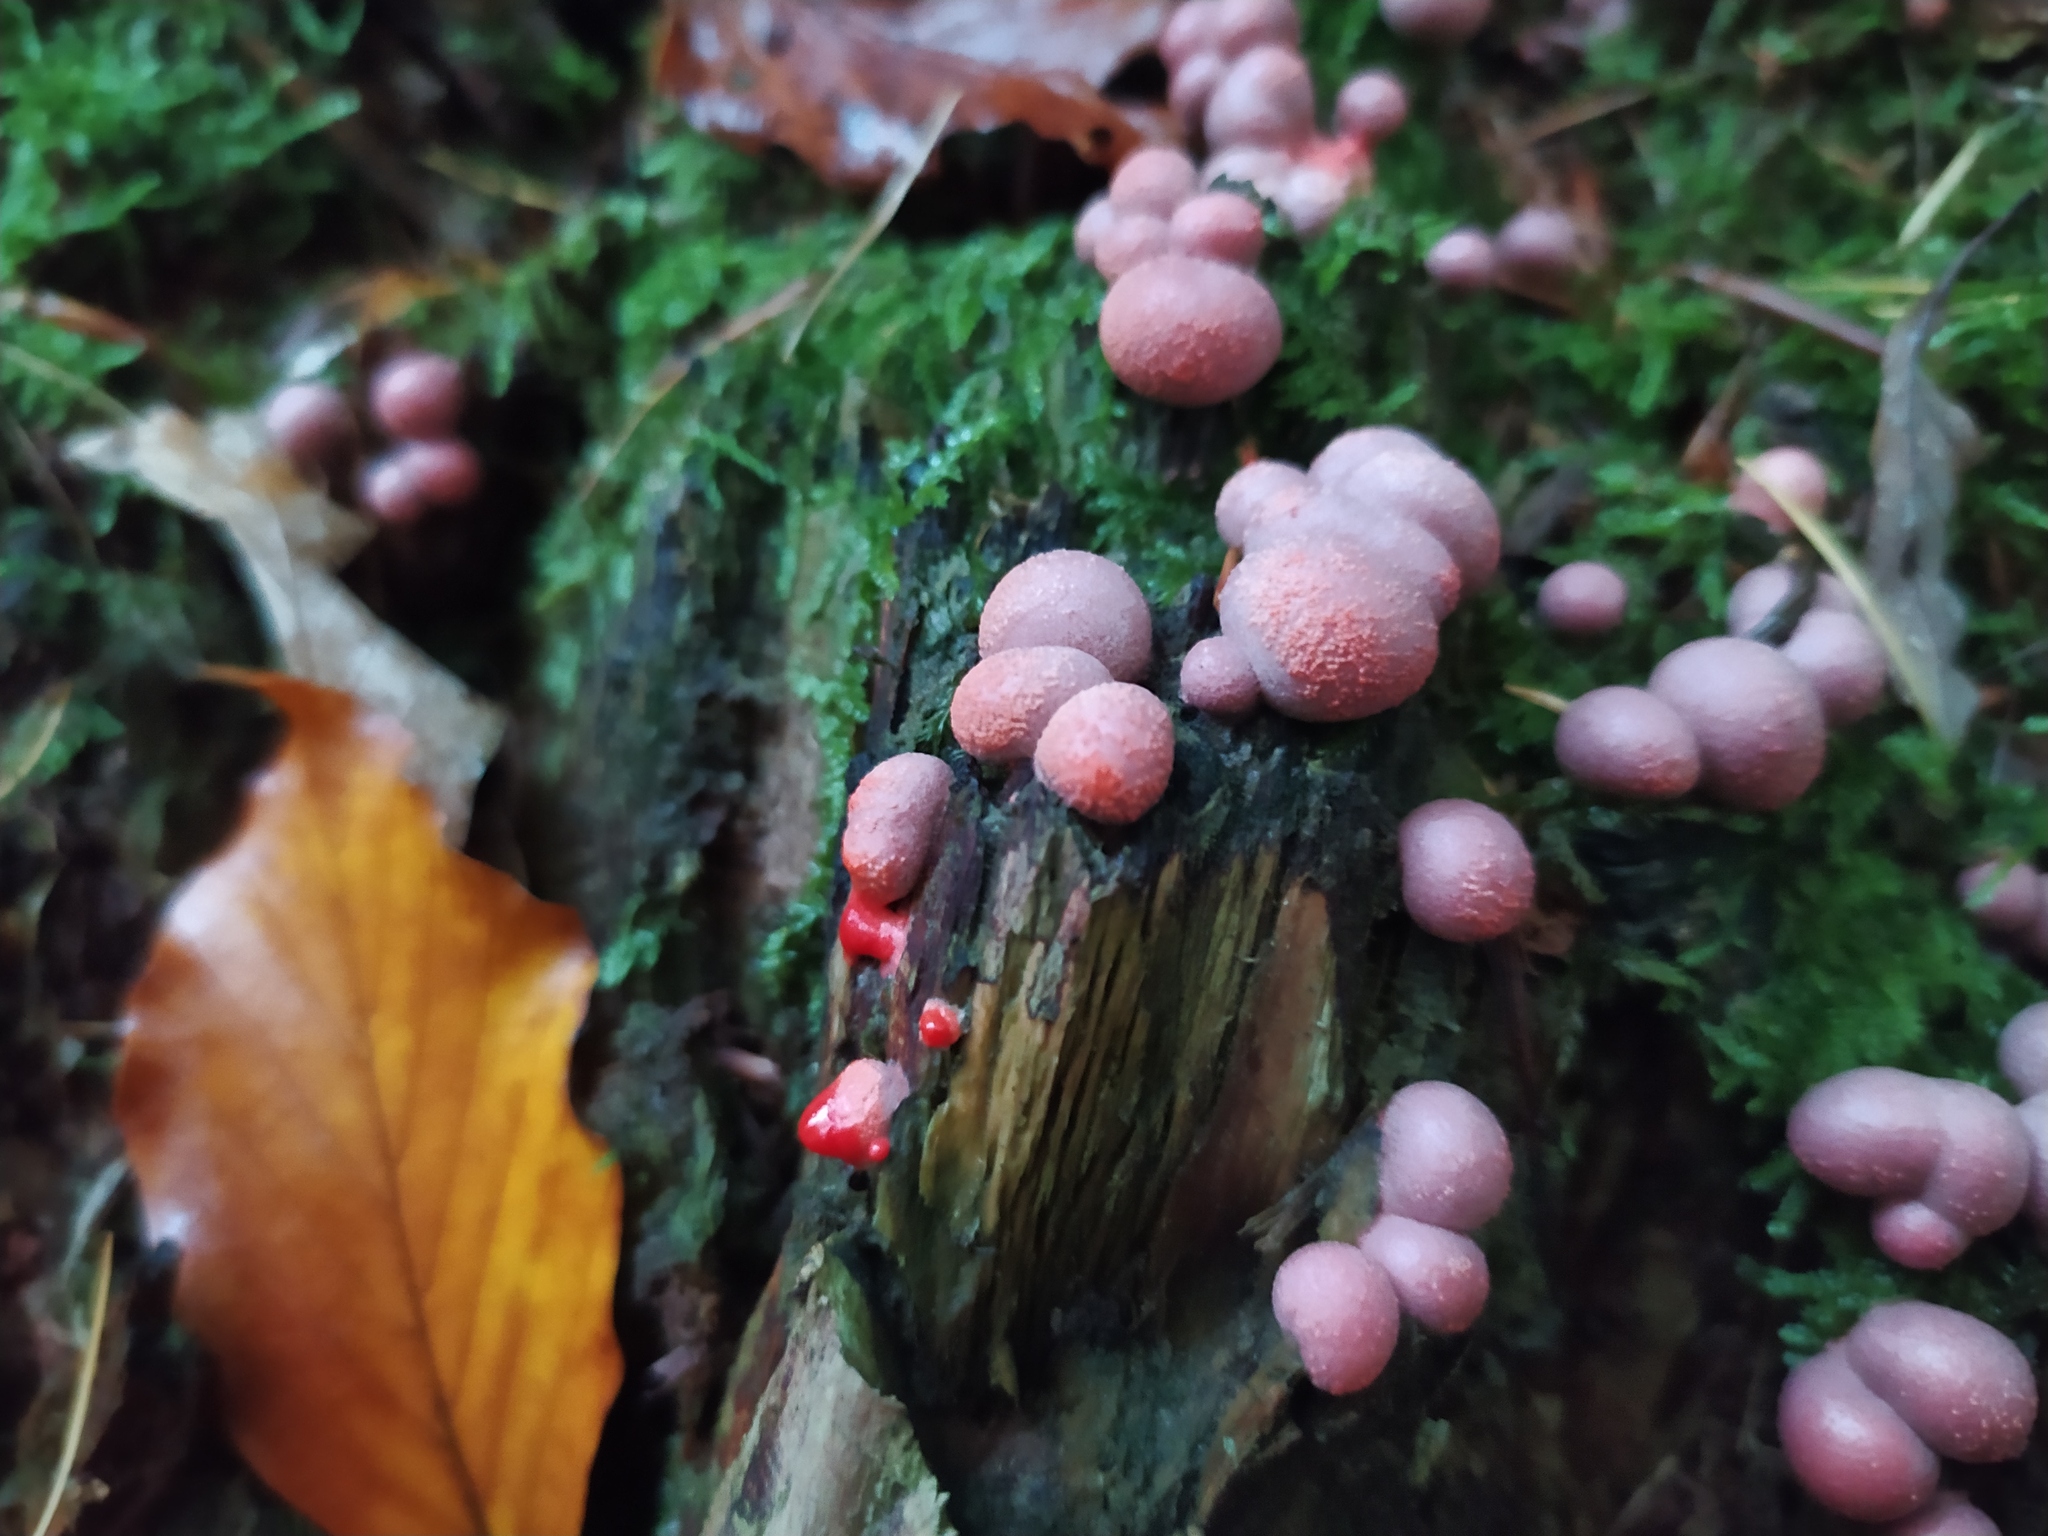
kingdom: Protozoa
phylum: Mycetozoa
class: Myxomycetes
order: Cribrariales
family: Tubiferaceae
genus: Lycogala
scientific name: Lycogala epidendrum
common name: Wolf's milk
